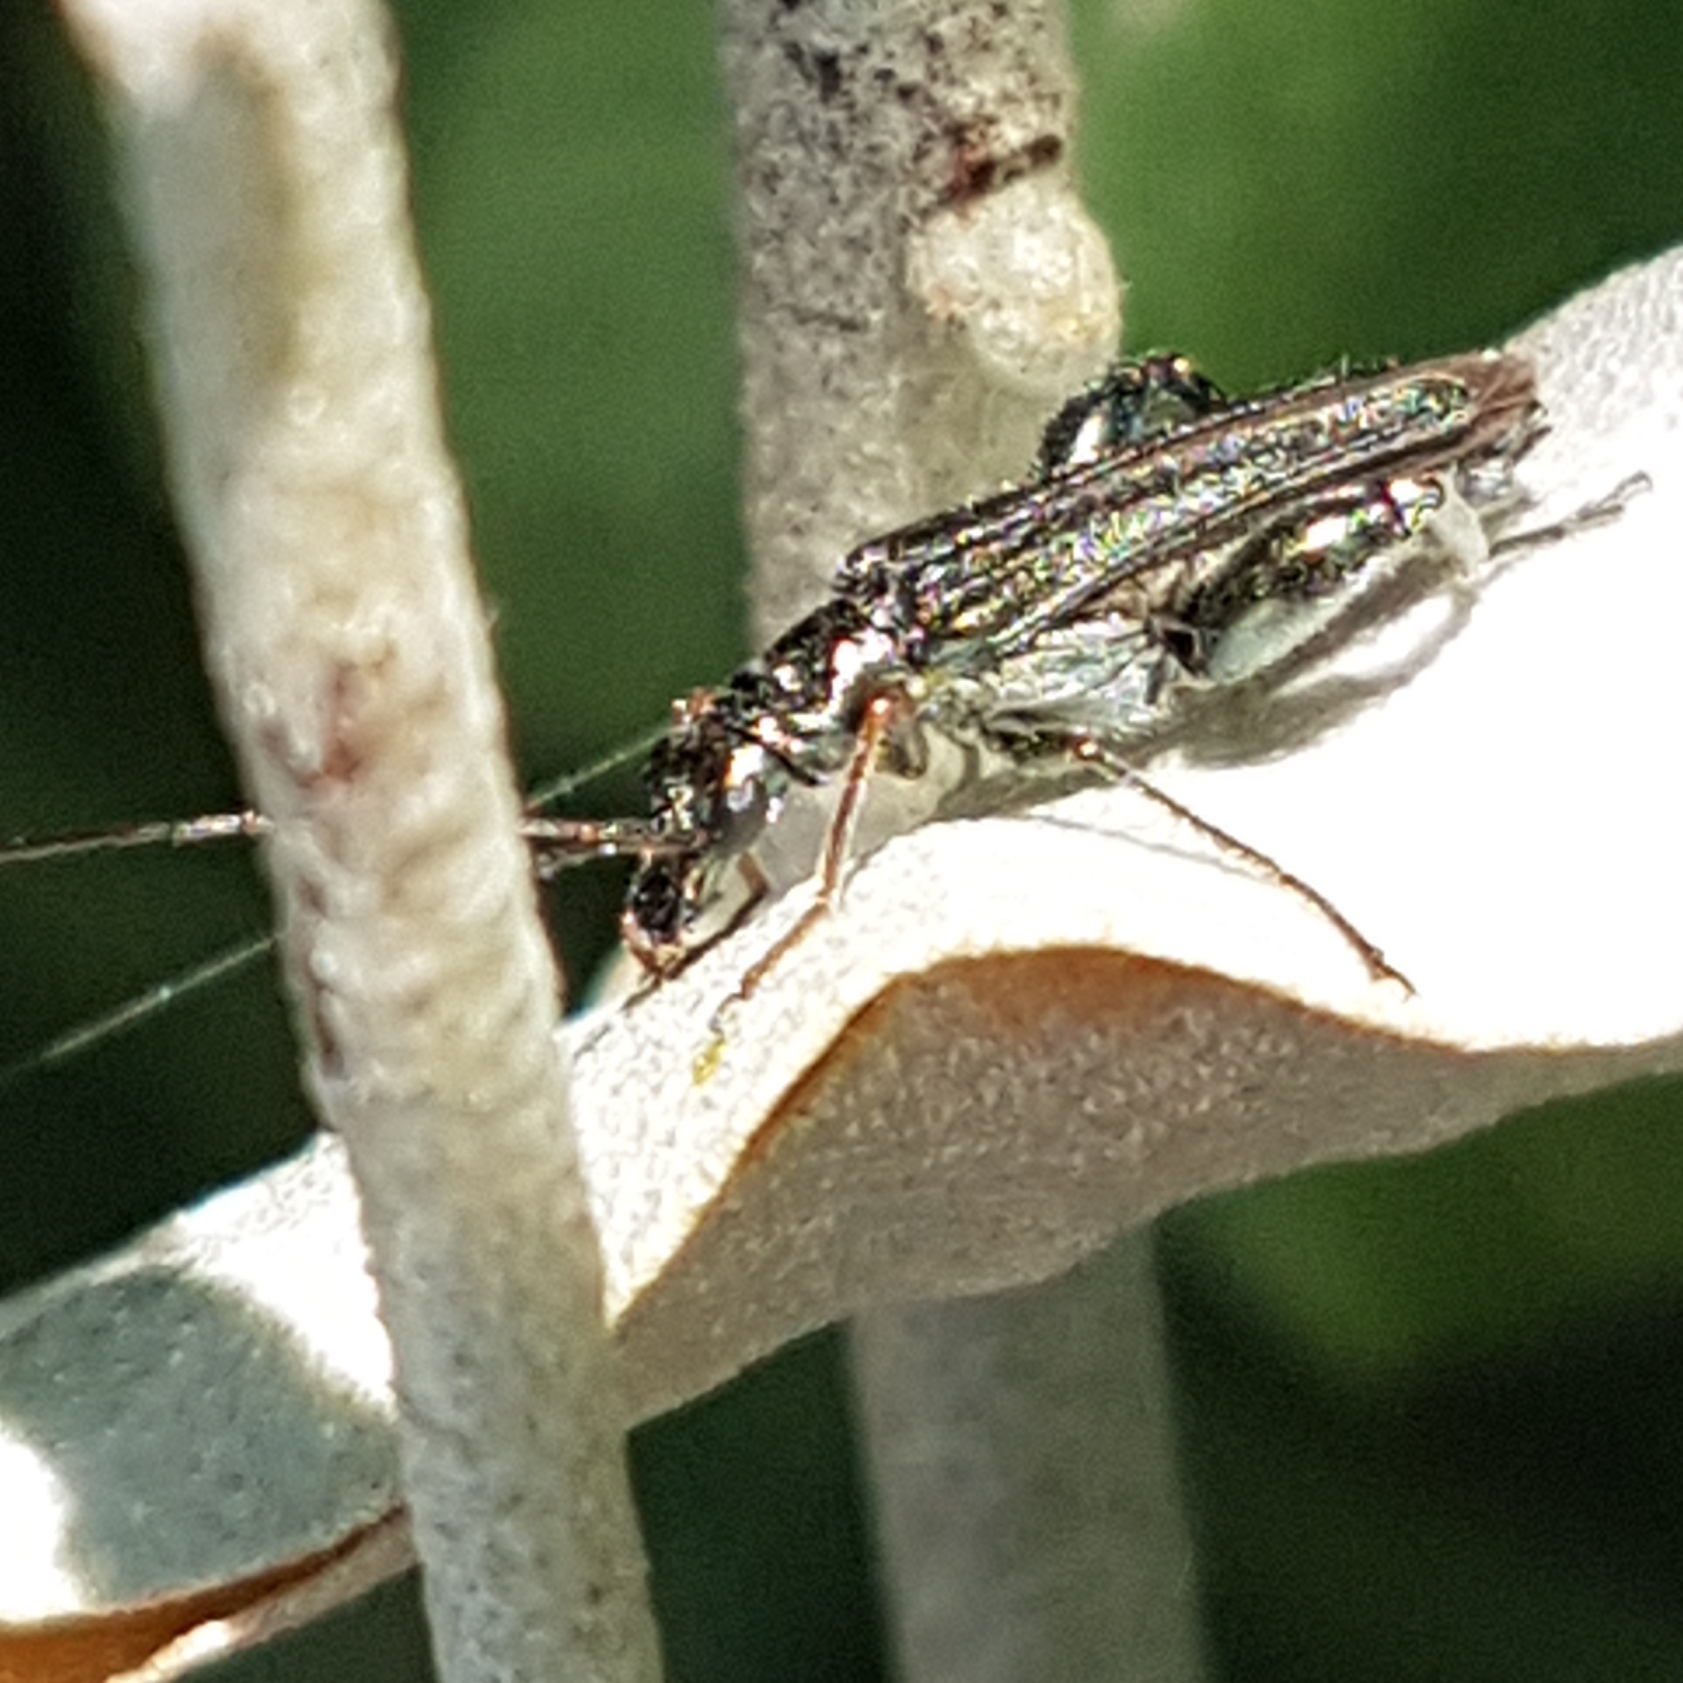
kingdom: Animalia
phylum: Arthropoda
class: Insecta
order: Coleoptera
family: Oedemeridae
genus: Oedemera
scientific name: Oedemera flavipes
